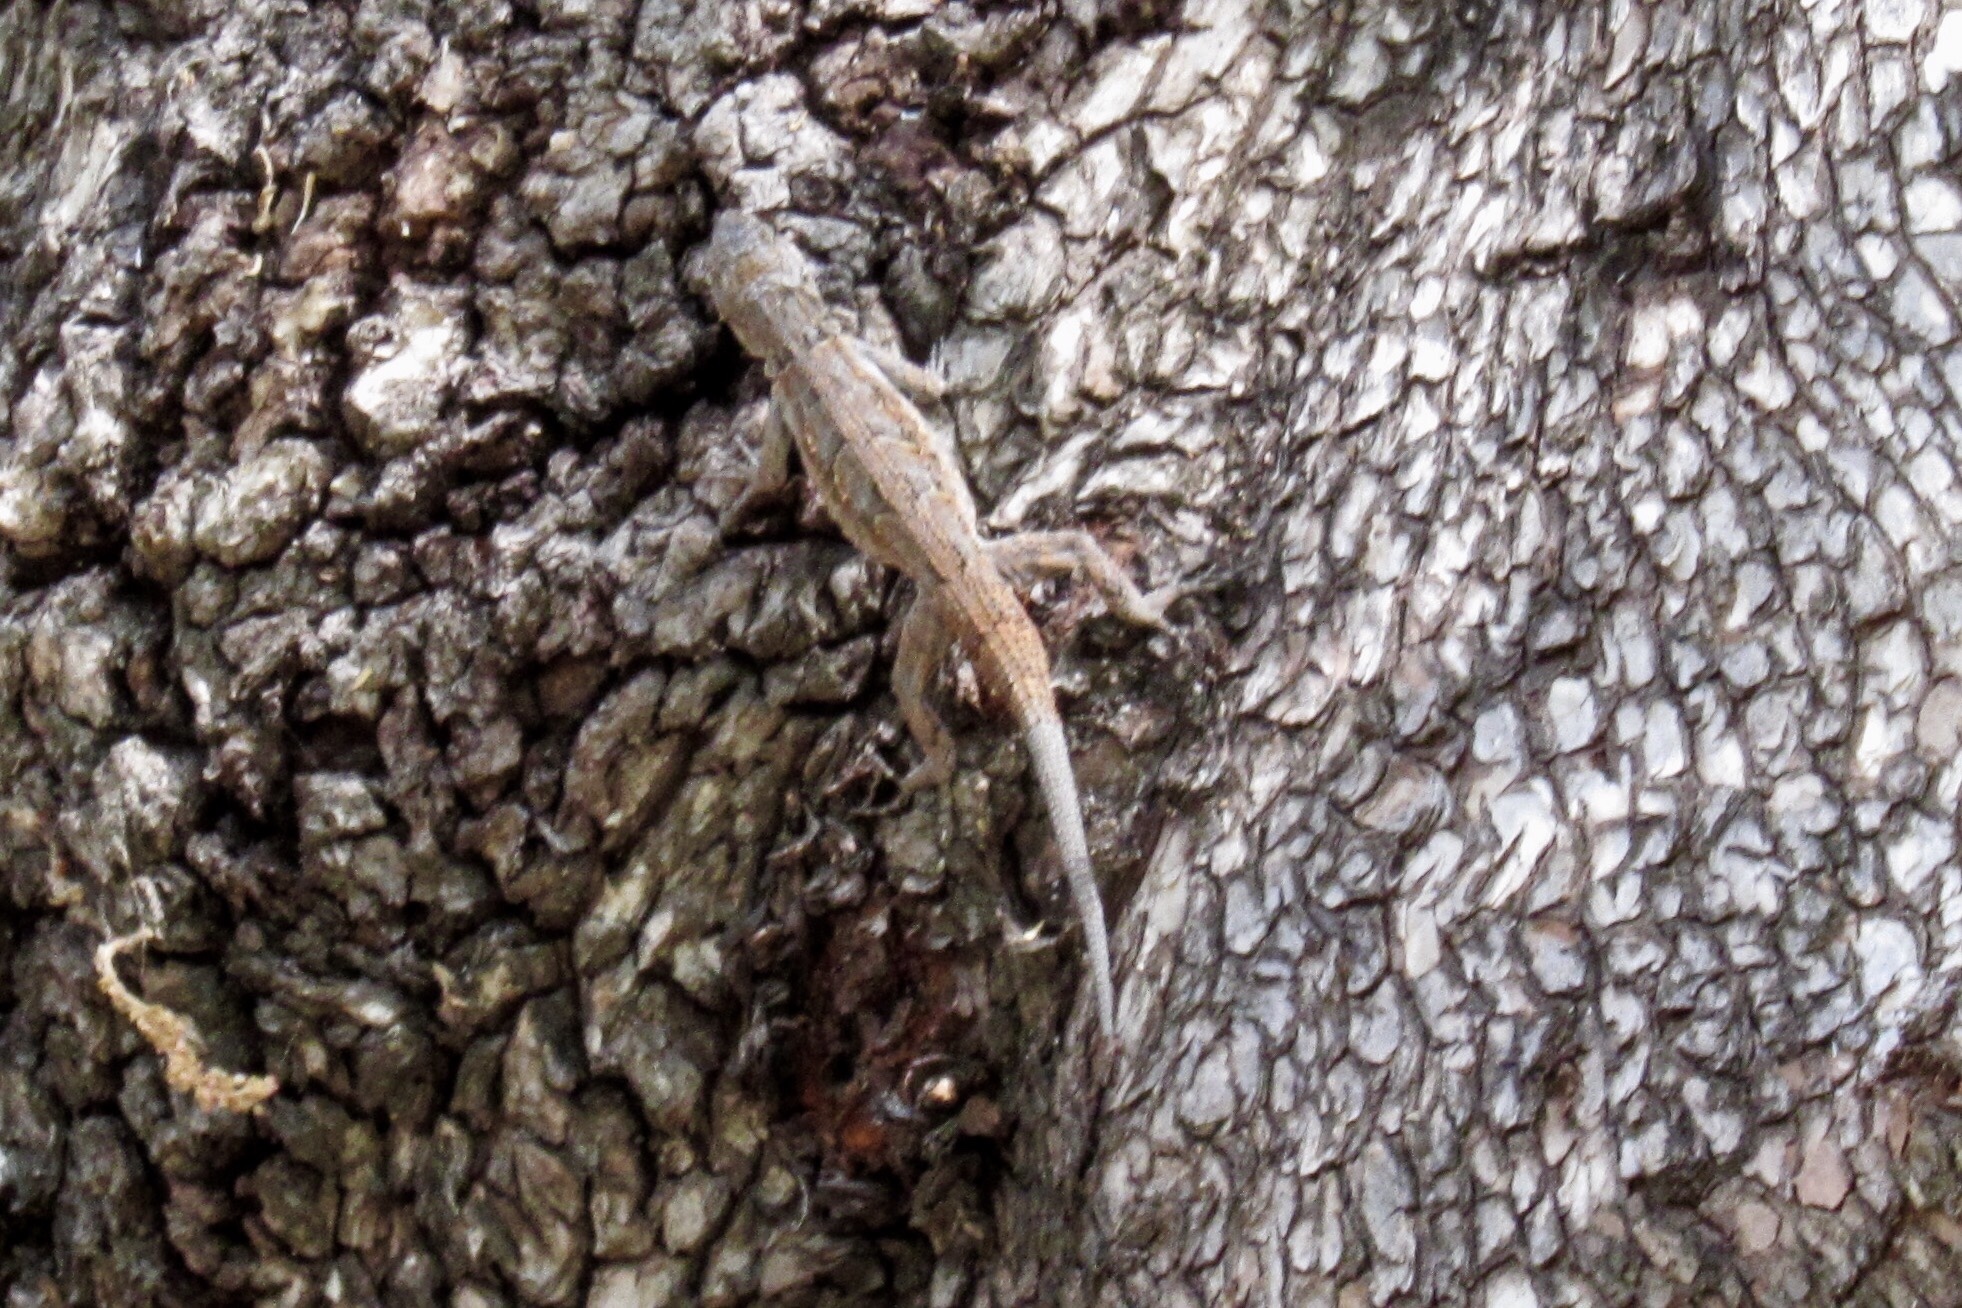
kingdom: Animalia
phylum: Chordata
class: Squamata
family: Phrynosomatidae
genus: Urosaurus
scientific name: Urosaurus ornatus
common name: Ornate tree lizard
